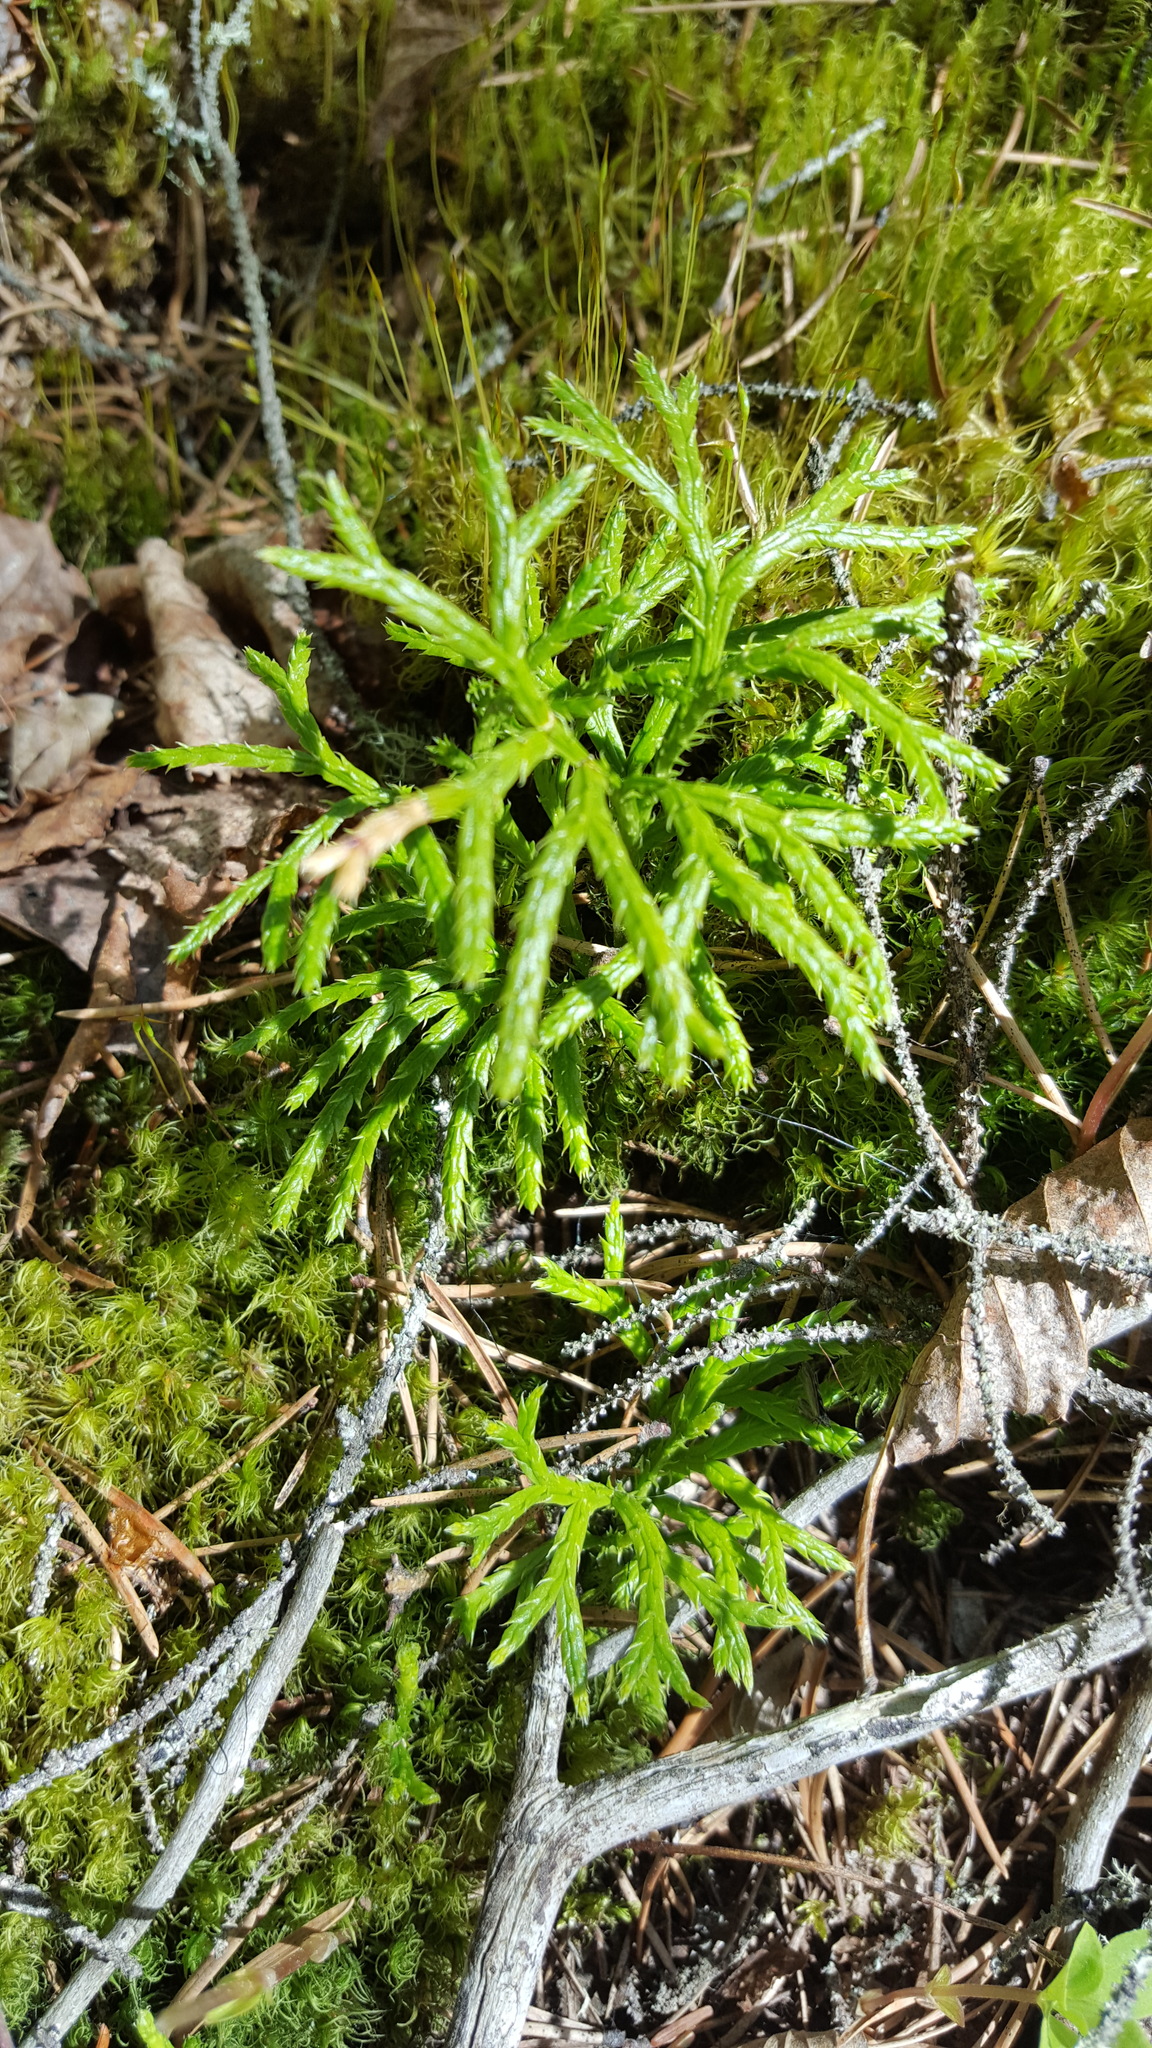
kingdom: Plantae
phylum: Tracheophyta
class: Lycopodiopsida
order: Lycopodiales
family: Lycopodiaceae
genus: Diphasiastrum
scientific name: Diphasiastrum digitatum
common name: Southern running-pine
